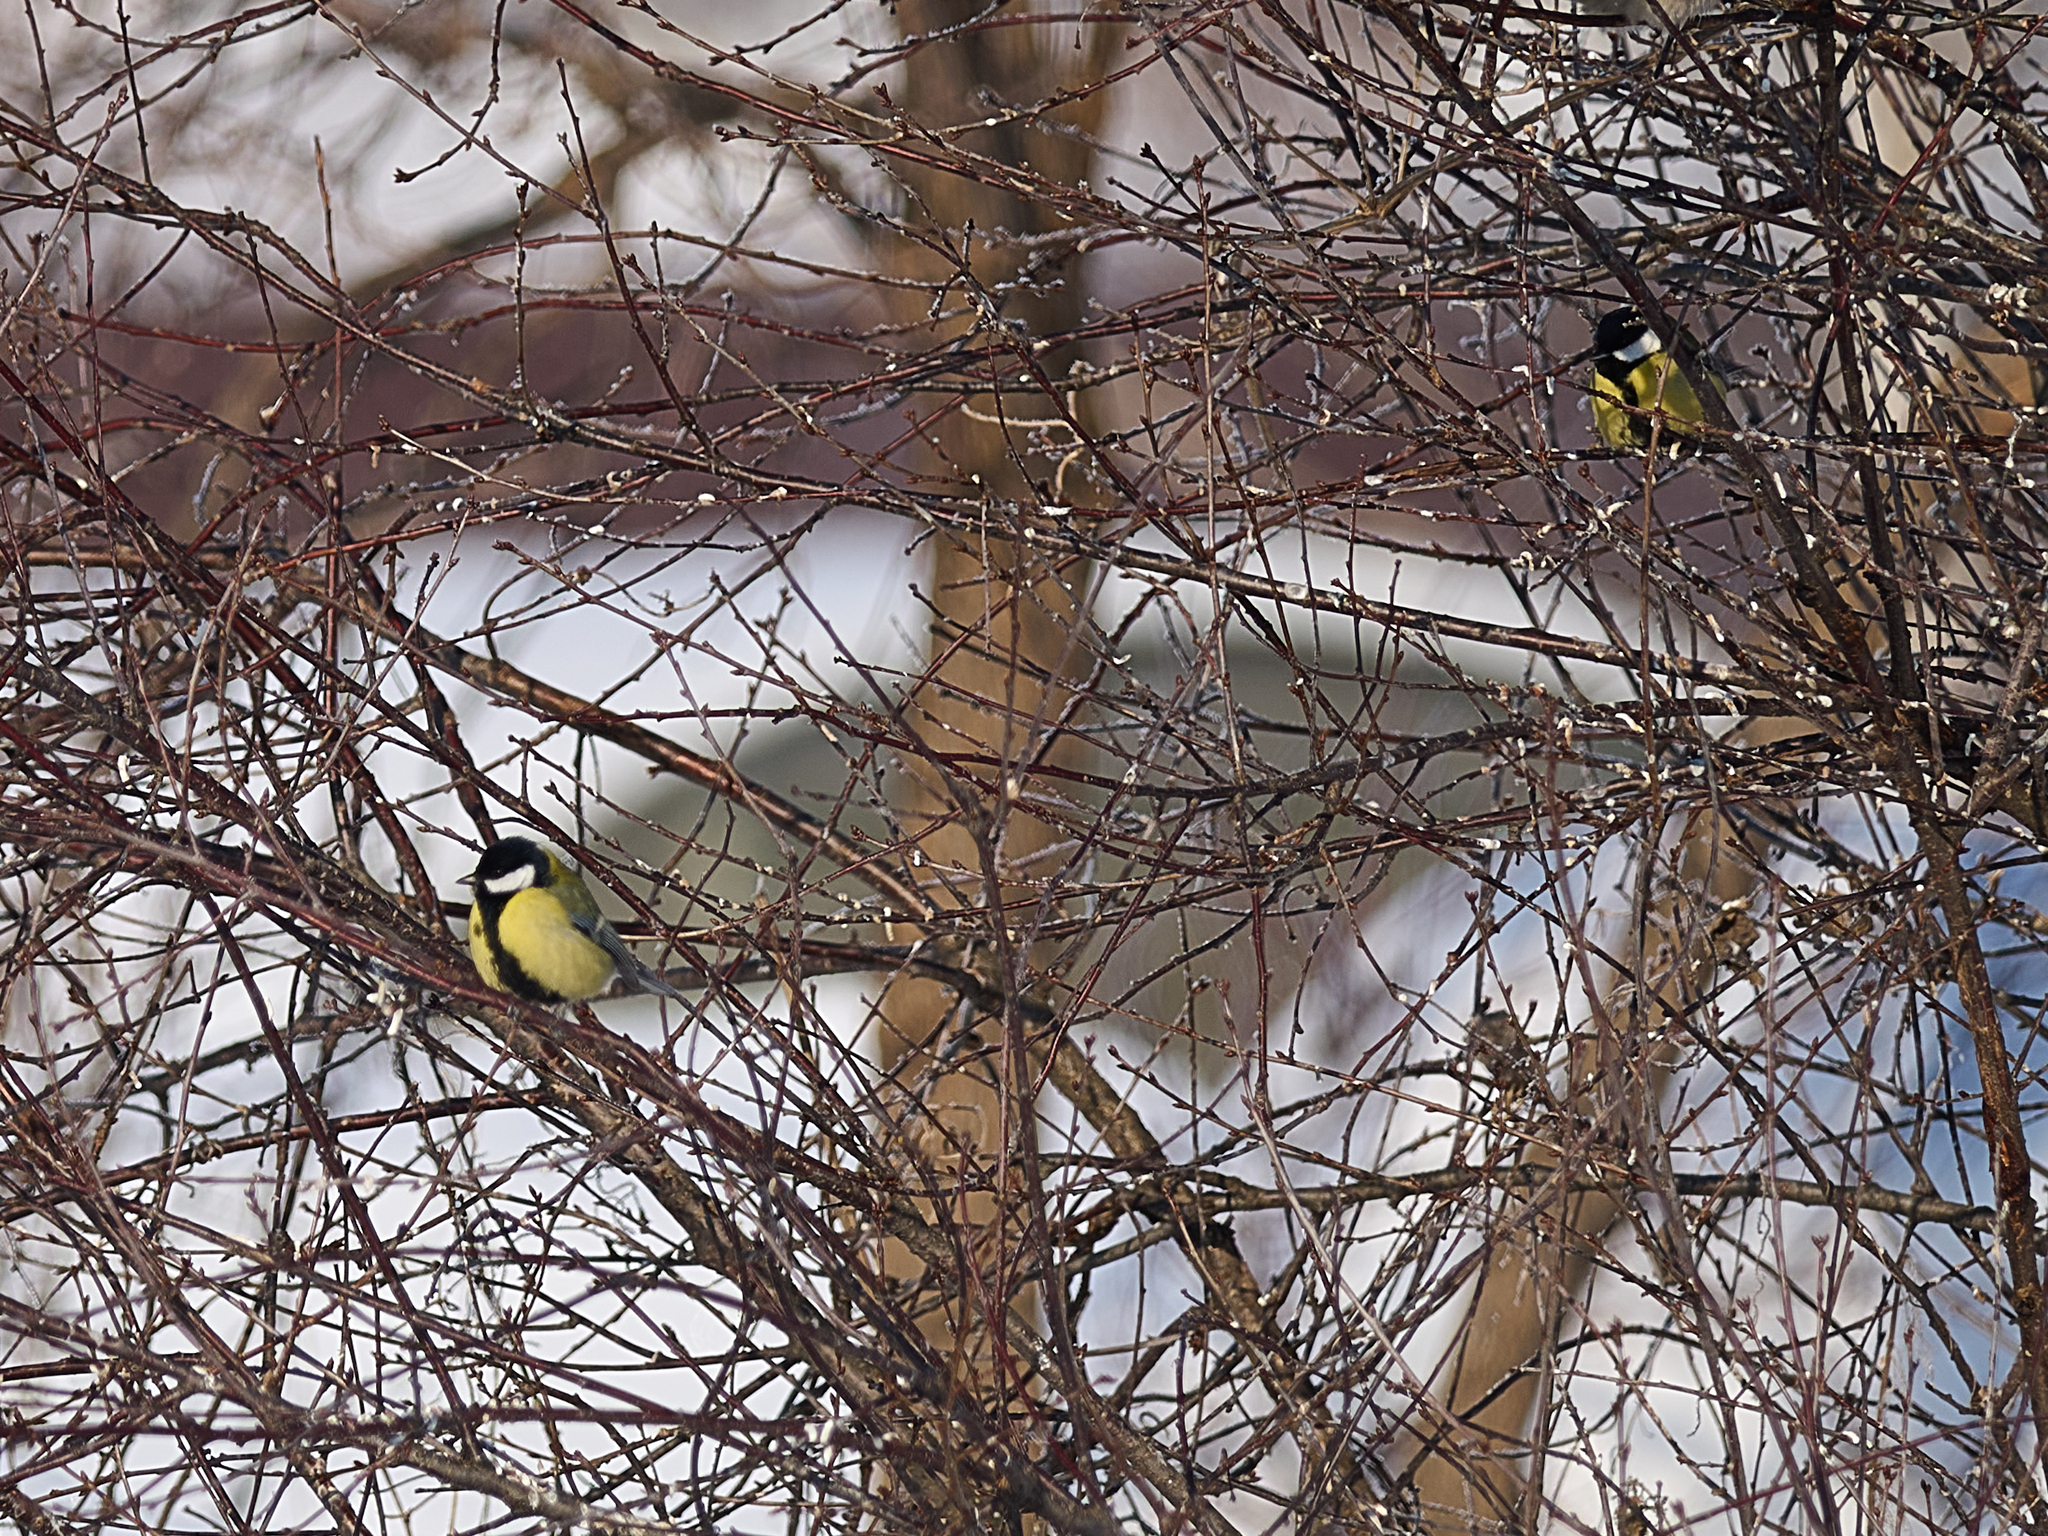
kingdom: Animalia
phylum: Chordata
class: Aves
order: Passeriformes
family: Paridae
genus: Parus
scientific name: Parus major
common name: Great tit
